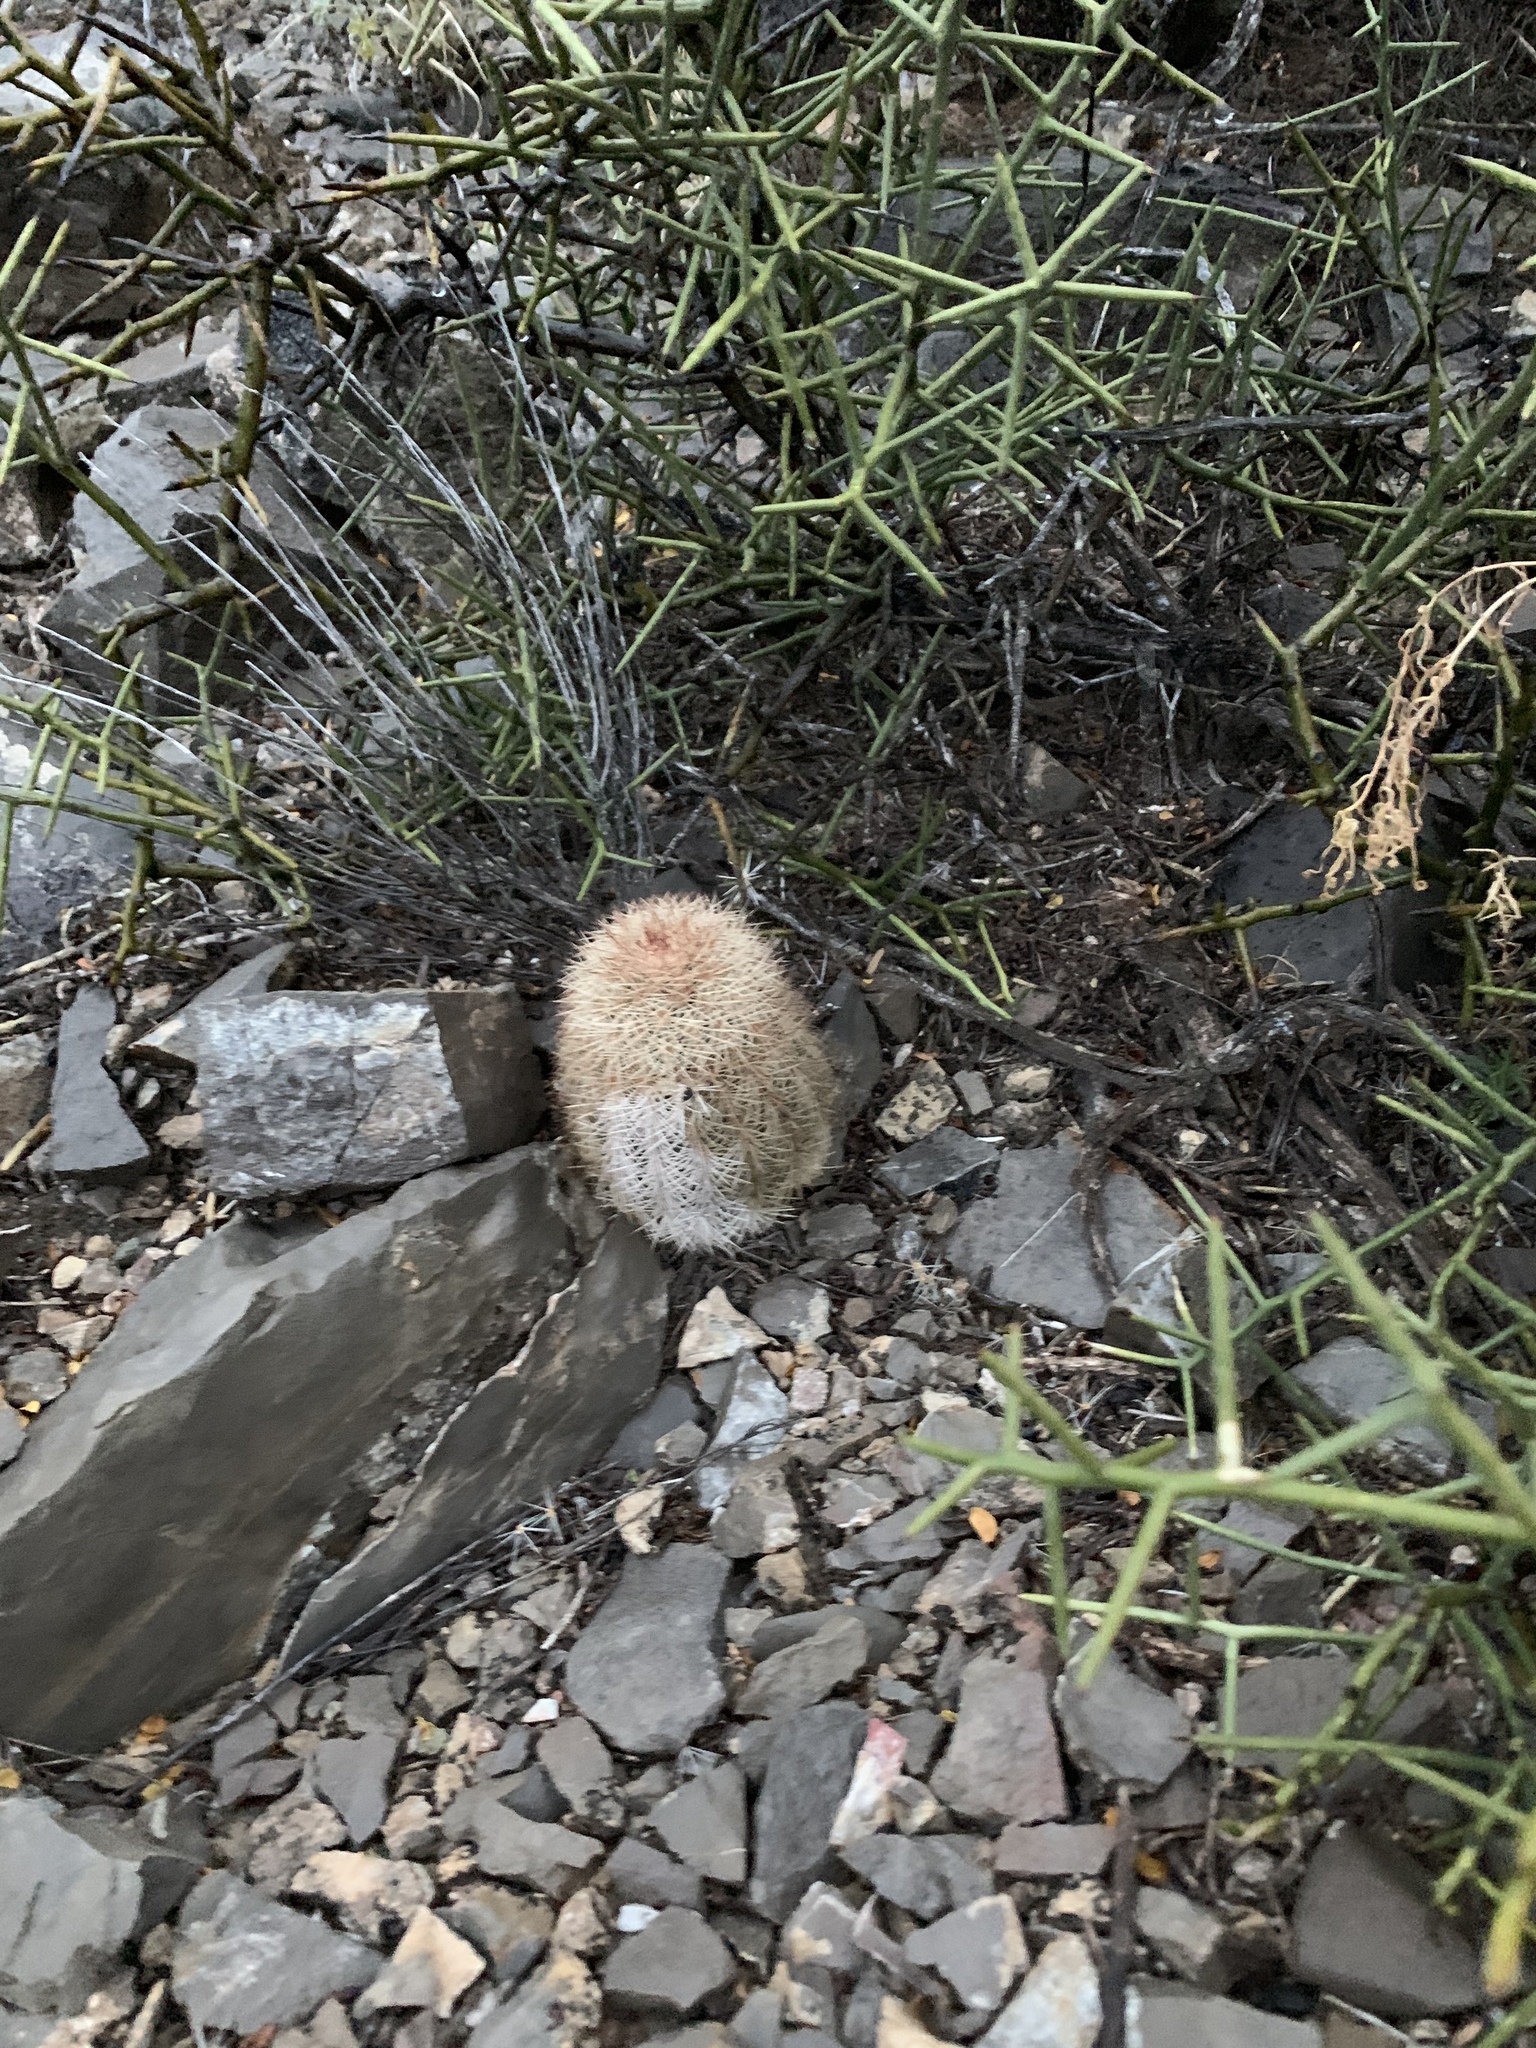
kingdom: Plantae
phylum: Tracheophyta
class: Magnoliopsida
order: Caryophyllales
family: Cactaceae
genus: Echinocereus
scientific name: Echinocereus dasyacanthus
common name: Spiny hedgehog cactus
